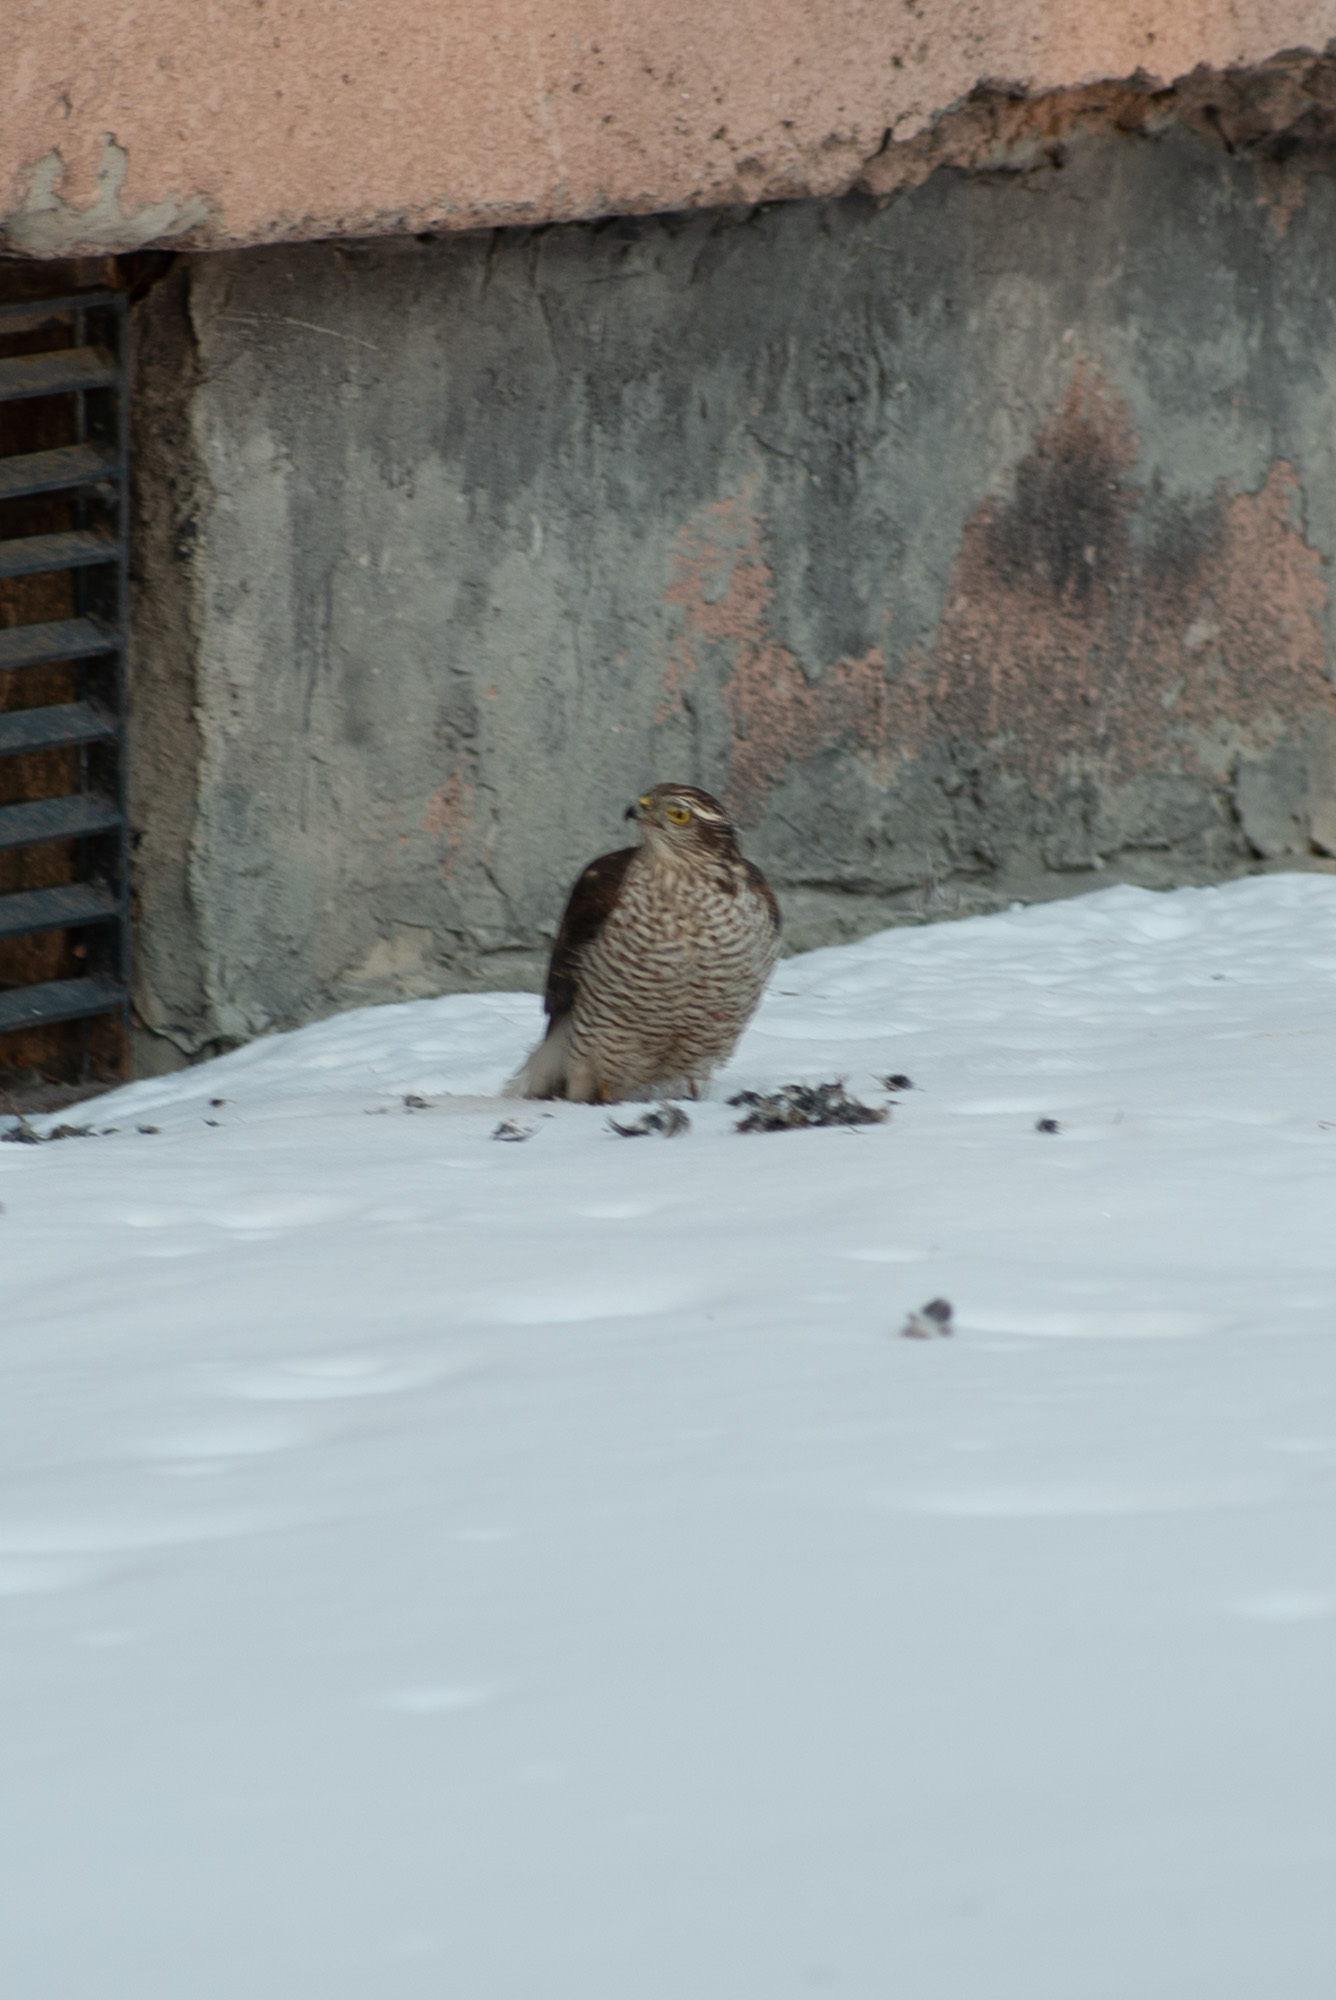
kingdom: Animalia
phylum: Chordata
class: Aves
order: Accipitriformes
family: Accipitridae
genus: Accipiter
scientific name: Accipiter nisus
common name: Eurasian sparrowhawk
